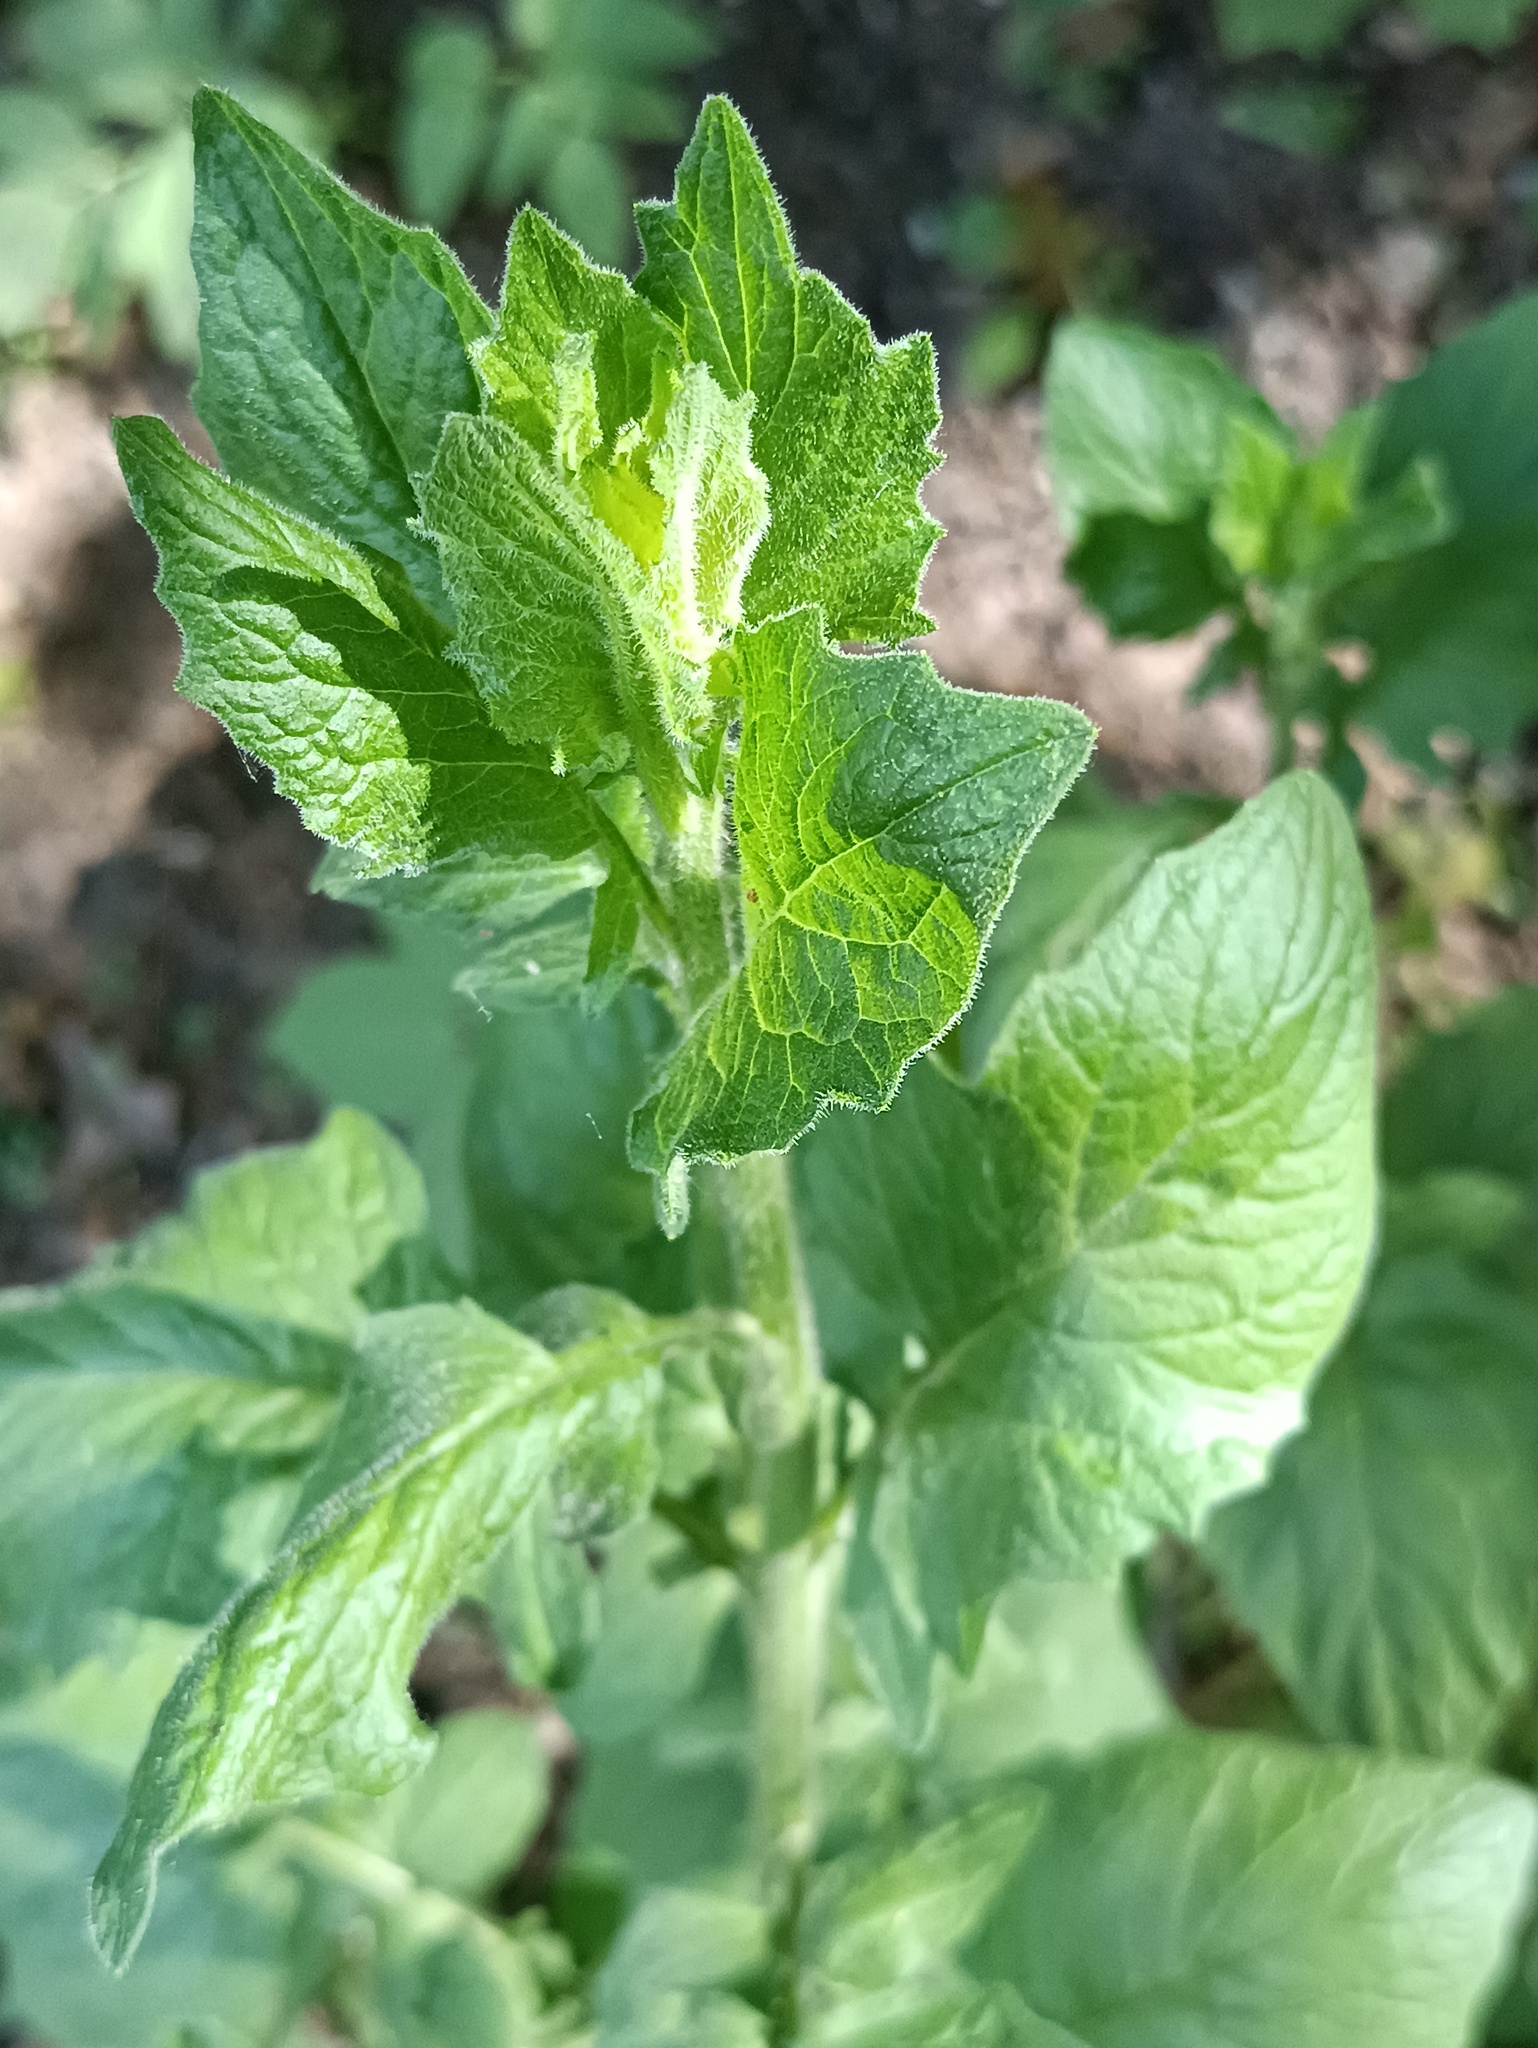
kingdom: Plantae
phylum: Tracheophyta
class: Magnoliopsida
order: Asterales
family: Asteraceae
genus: Lapsana
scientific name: Lapsana communis
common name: Nipplewort
